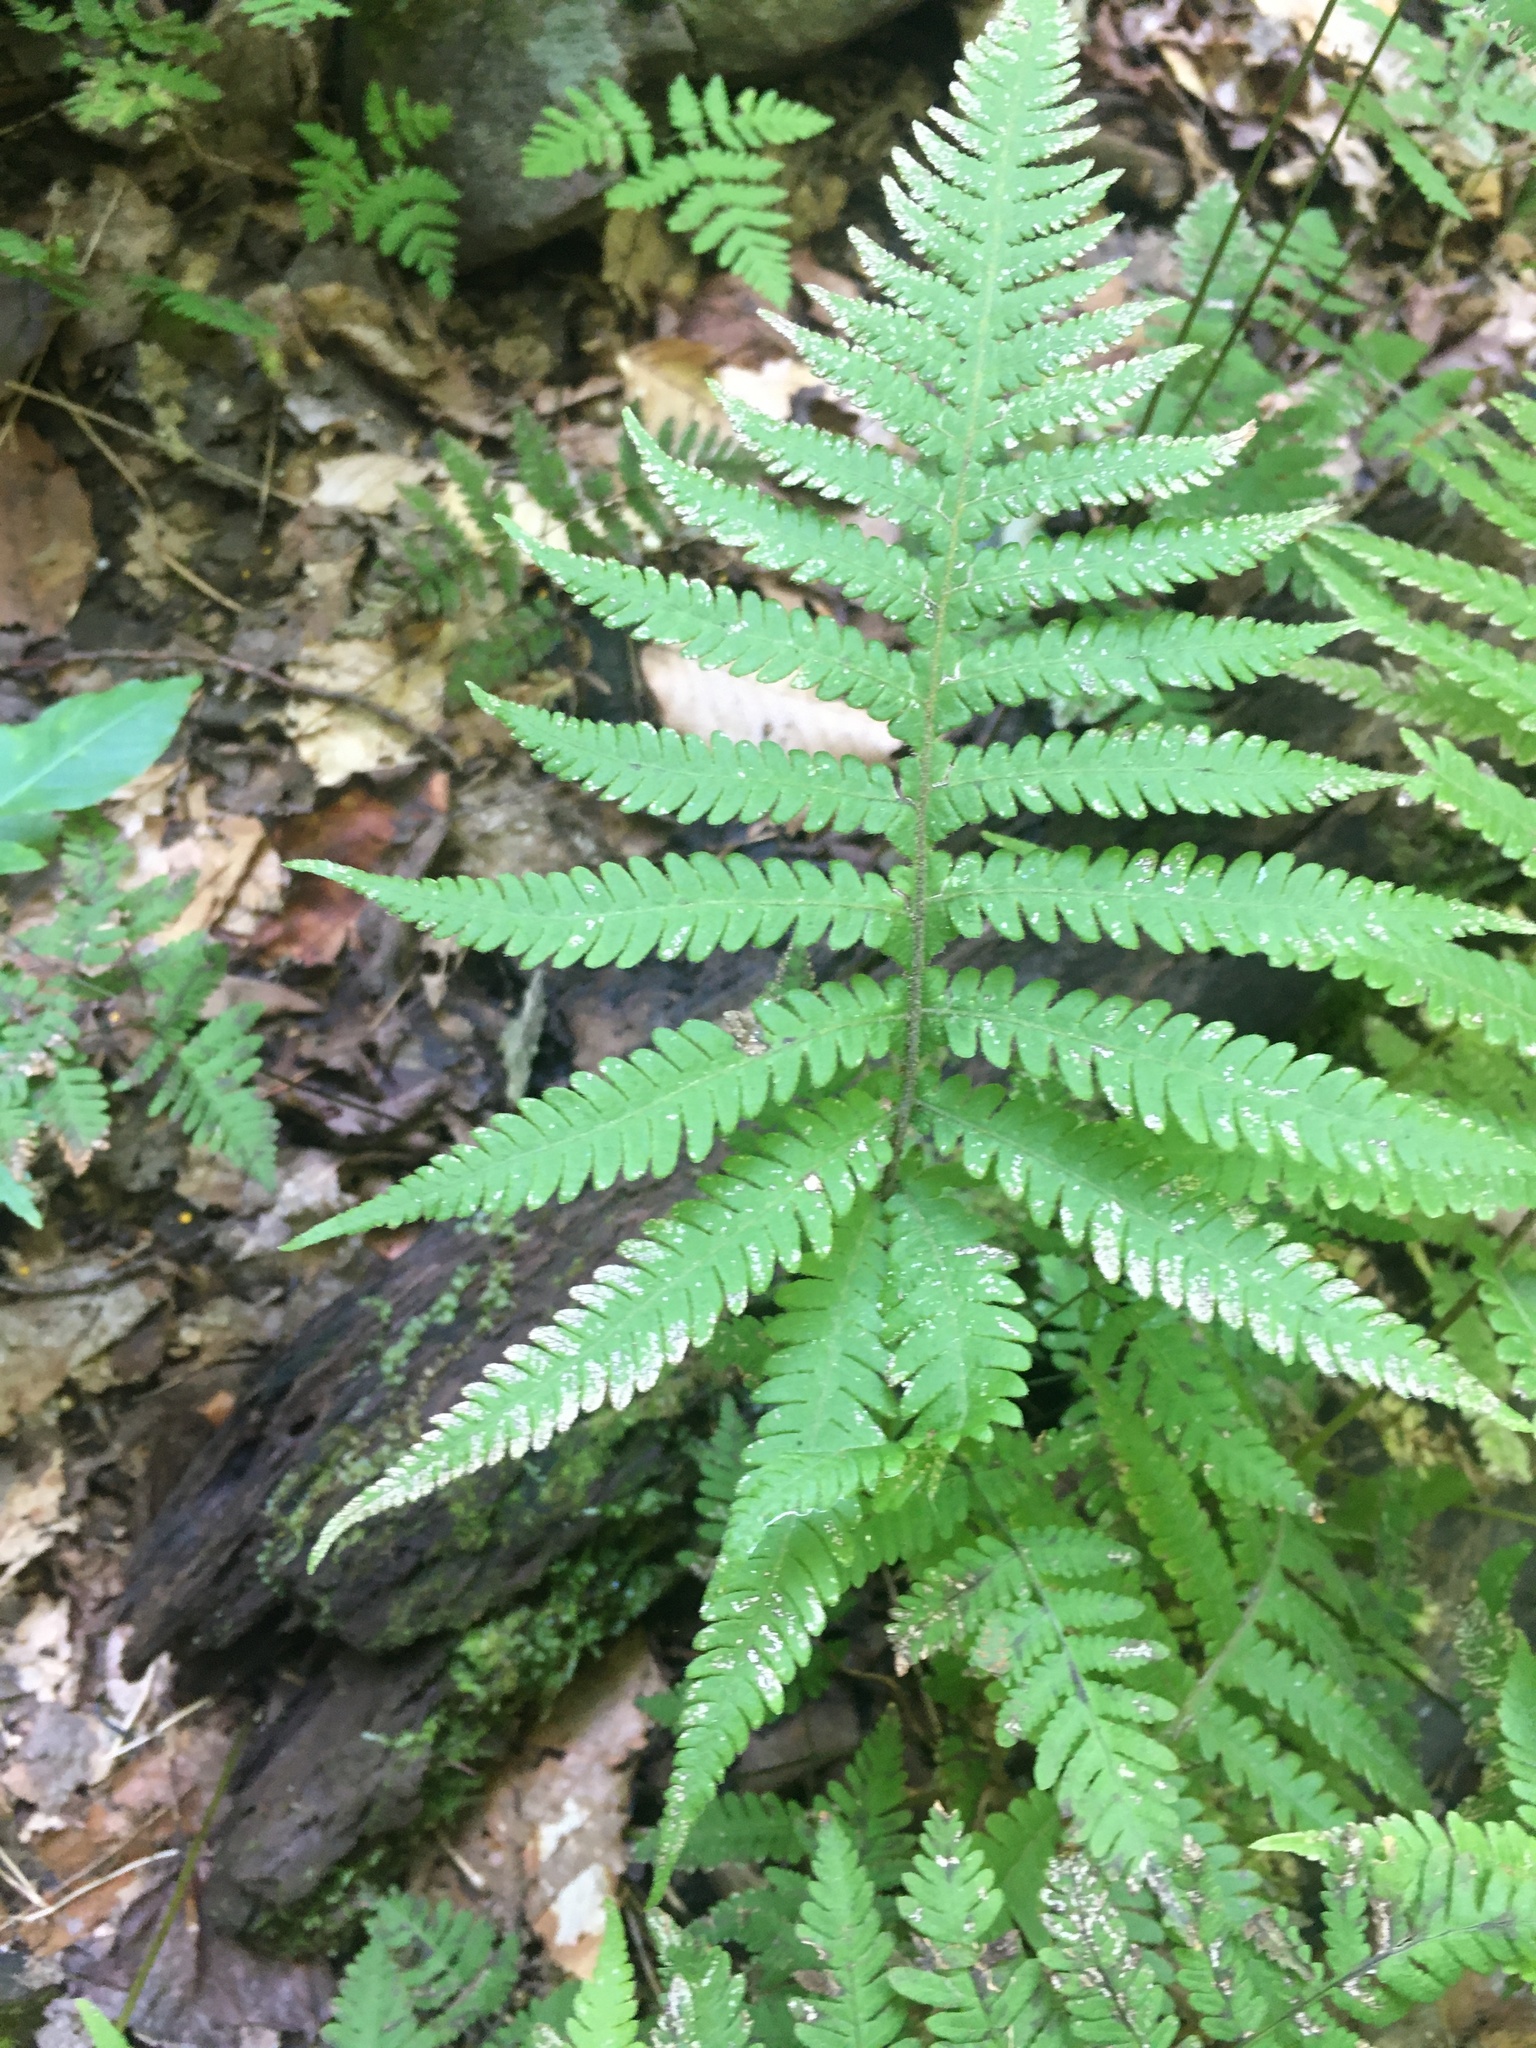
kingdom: Plantae
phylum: Tracheophyta
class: Polypodiopsida
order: Polypodiales
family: Thelypteridaceae
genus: Phegopteris
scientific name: Phegopteris connectilis
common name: Beech fern
